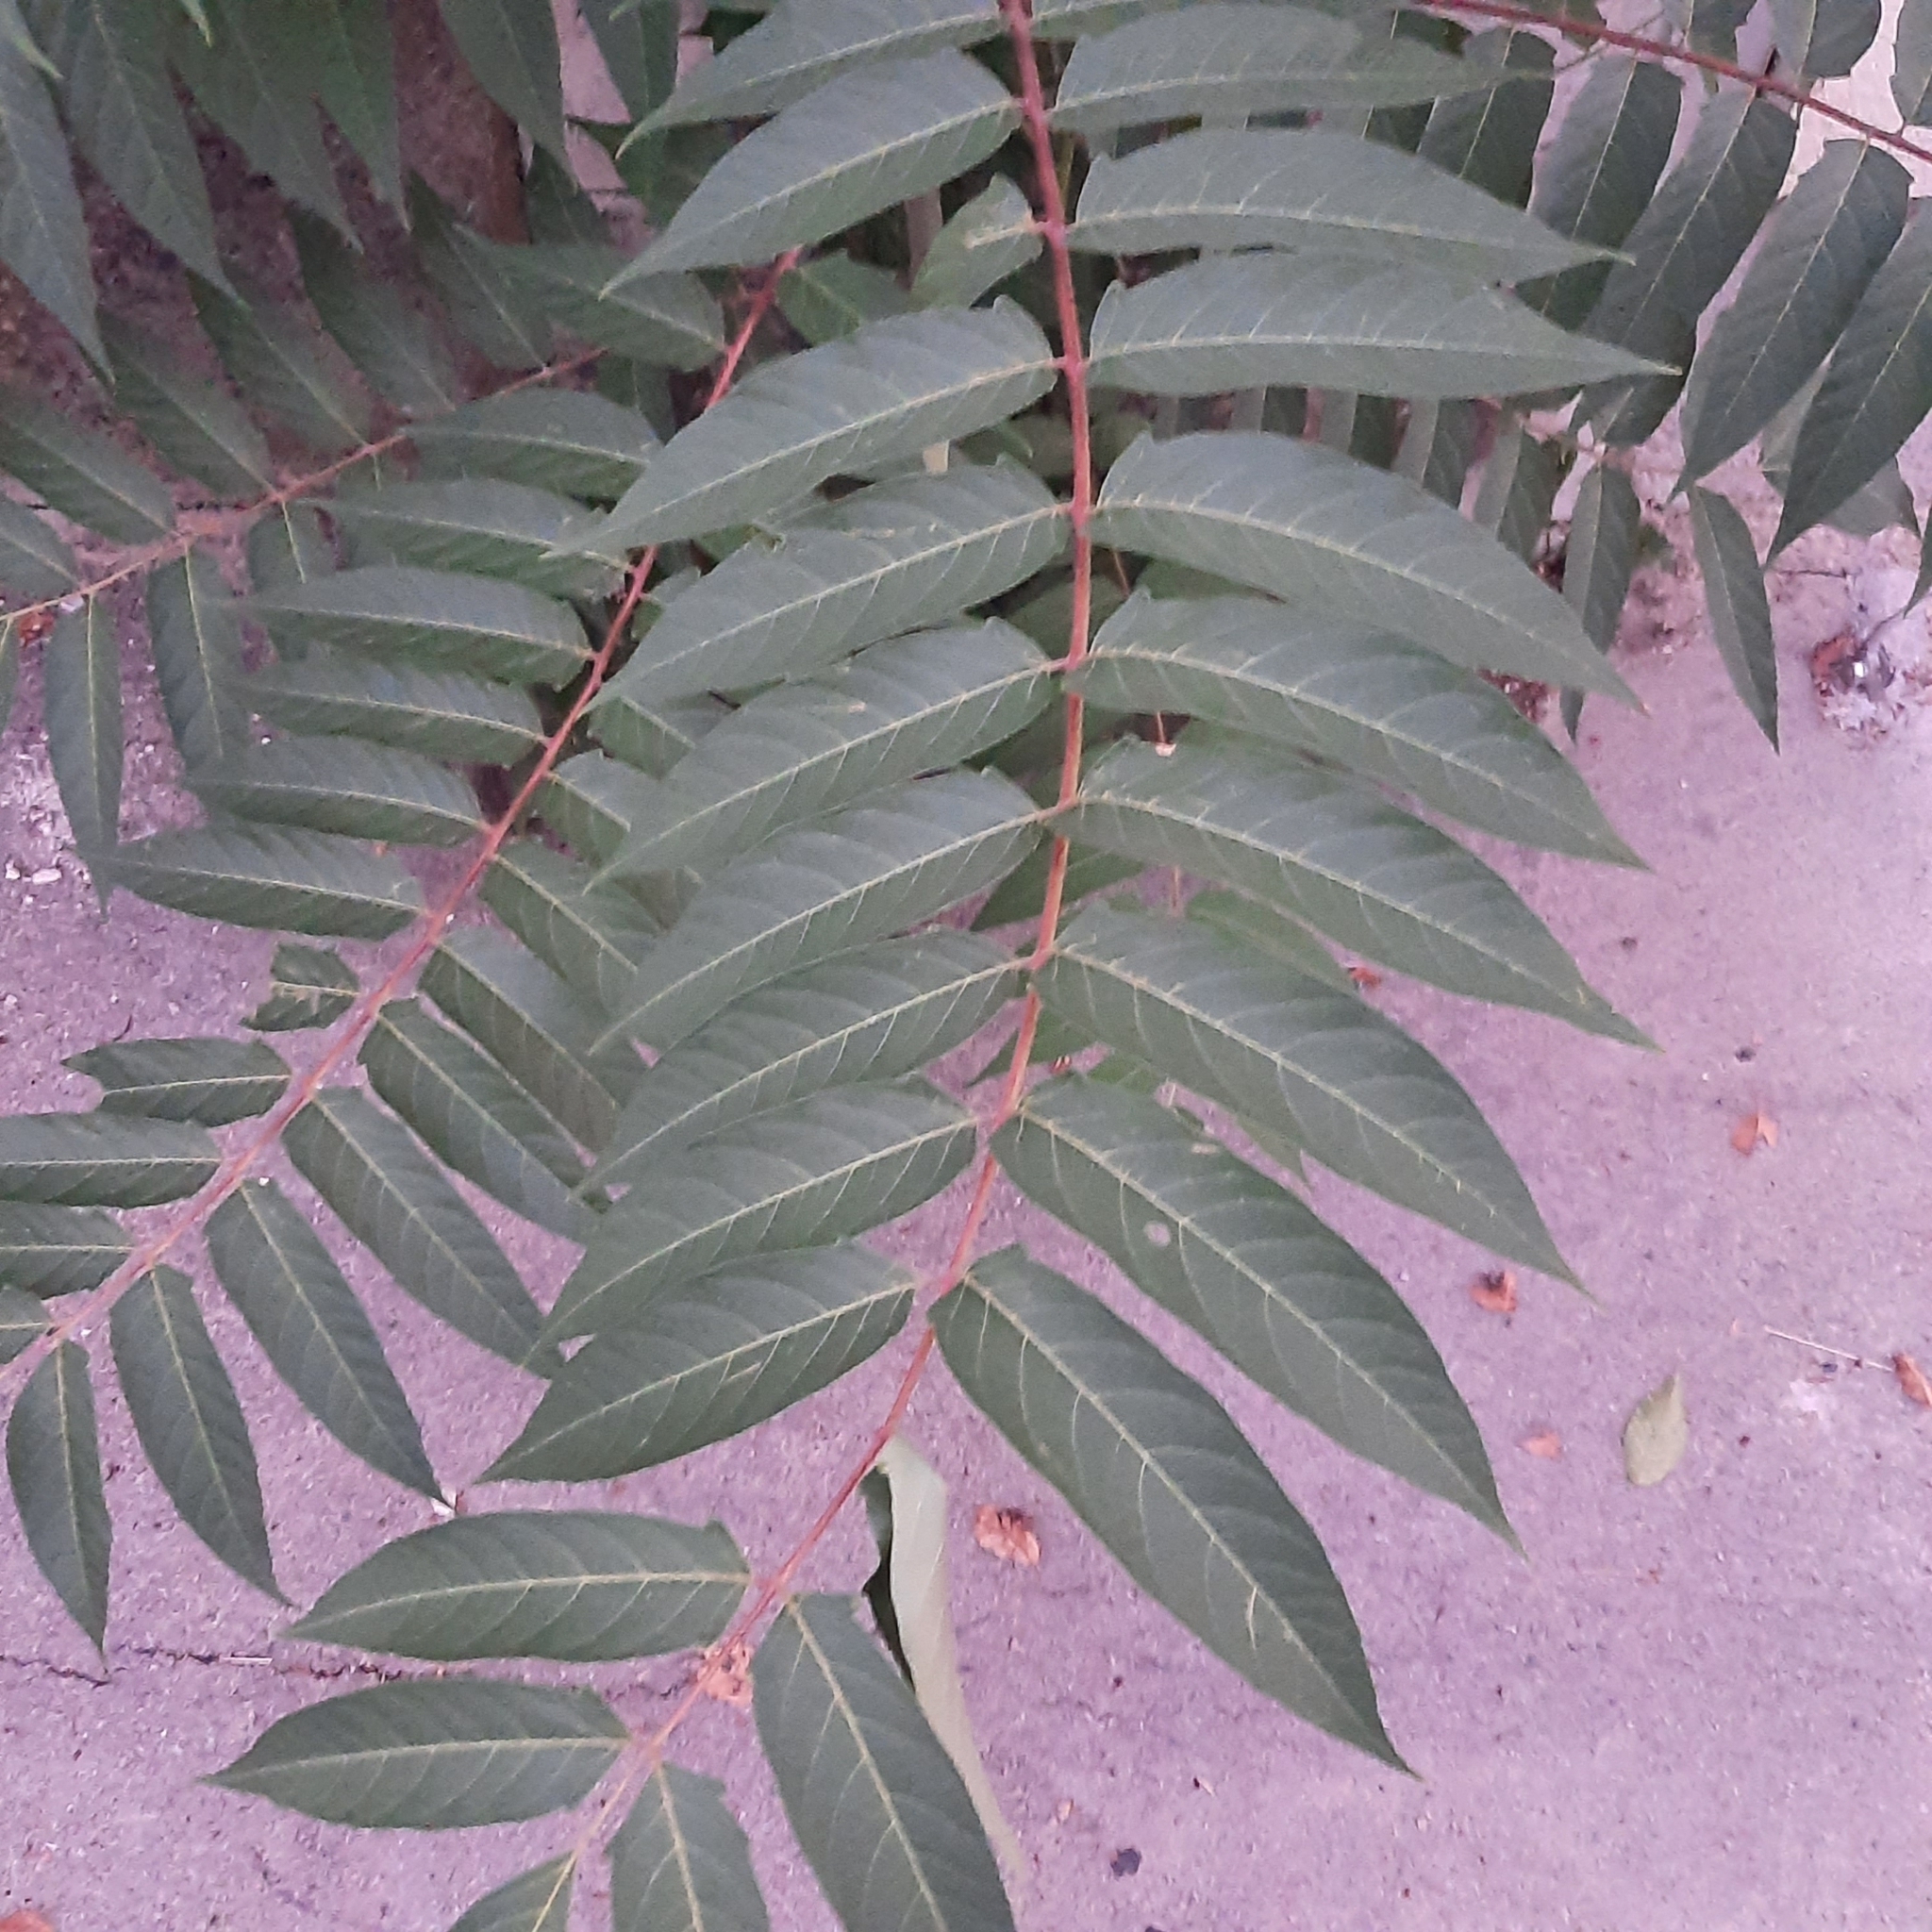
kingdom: Plantae
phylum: Tracheophyta
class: Magnoliopsida
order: Sapindales
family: Simaroubaceae
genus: Ailanthus
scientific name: Ailanthus altissima
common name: Tree-of-heaven
